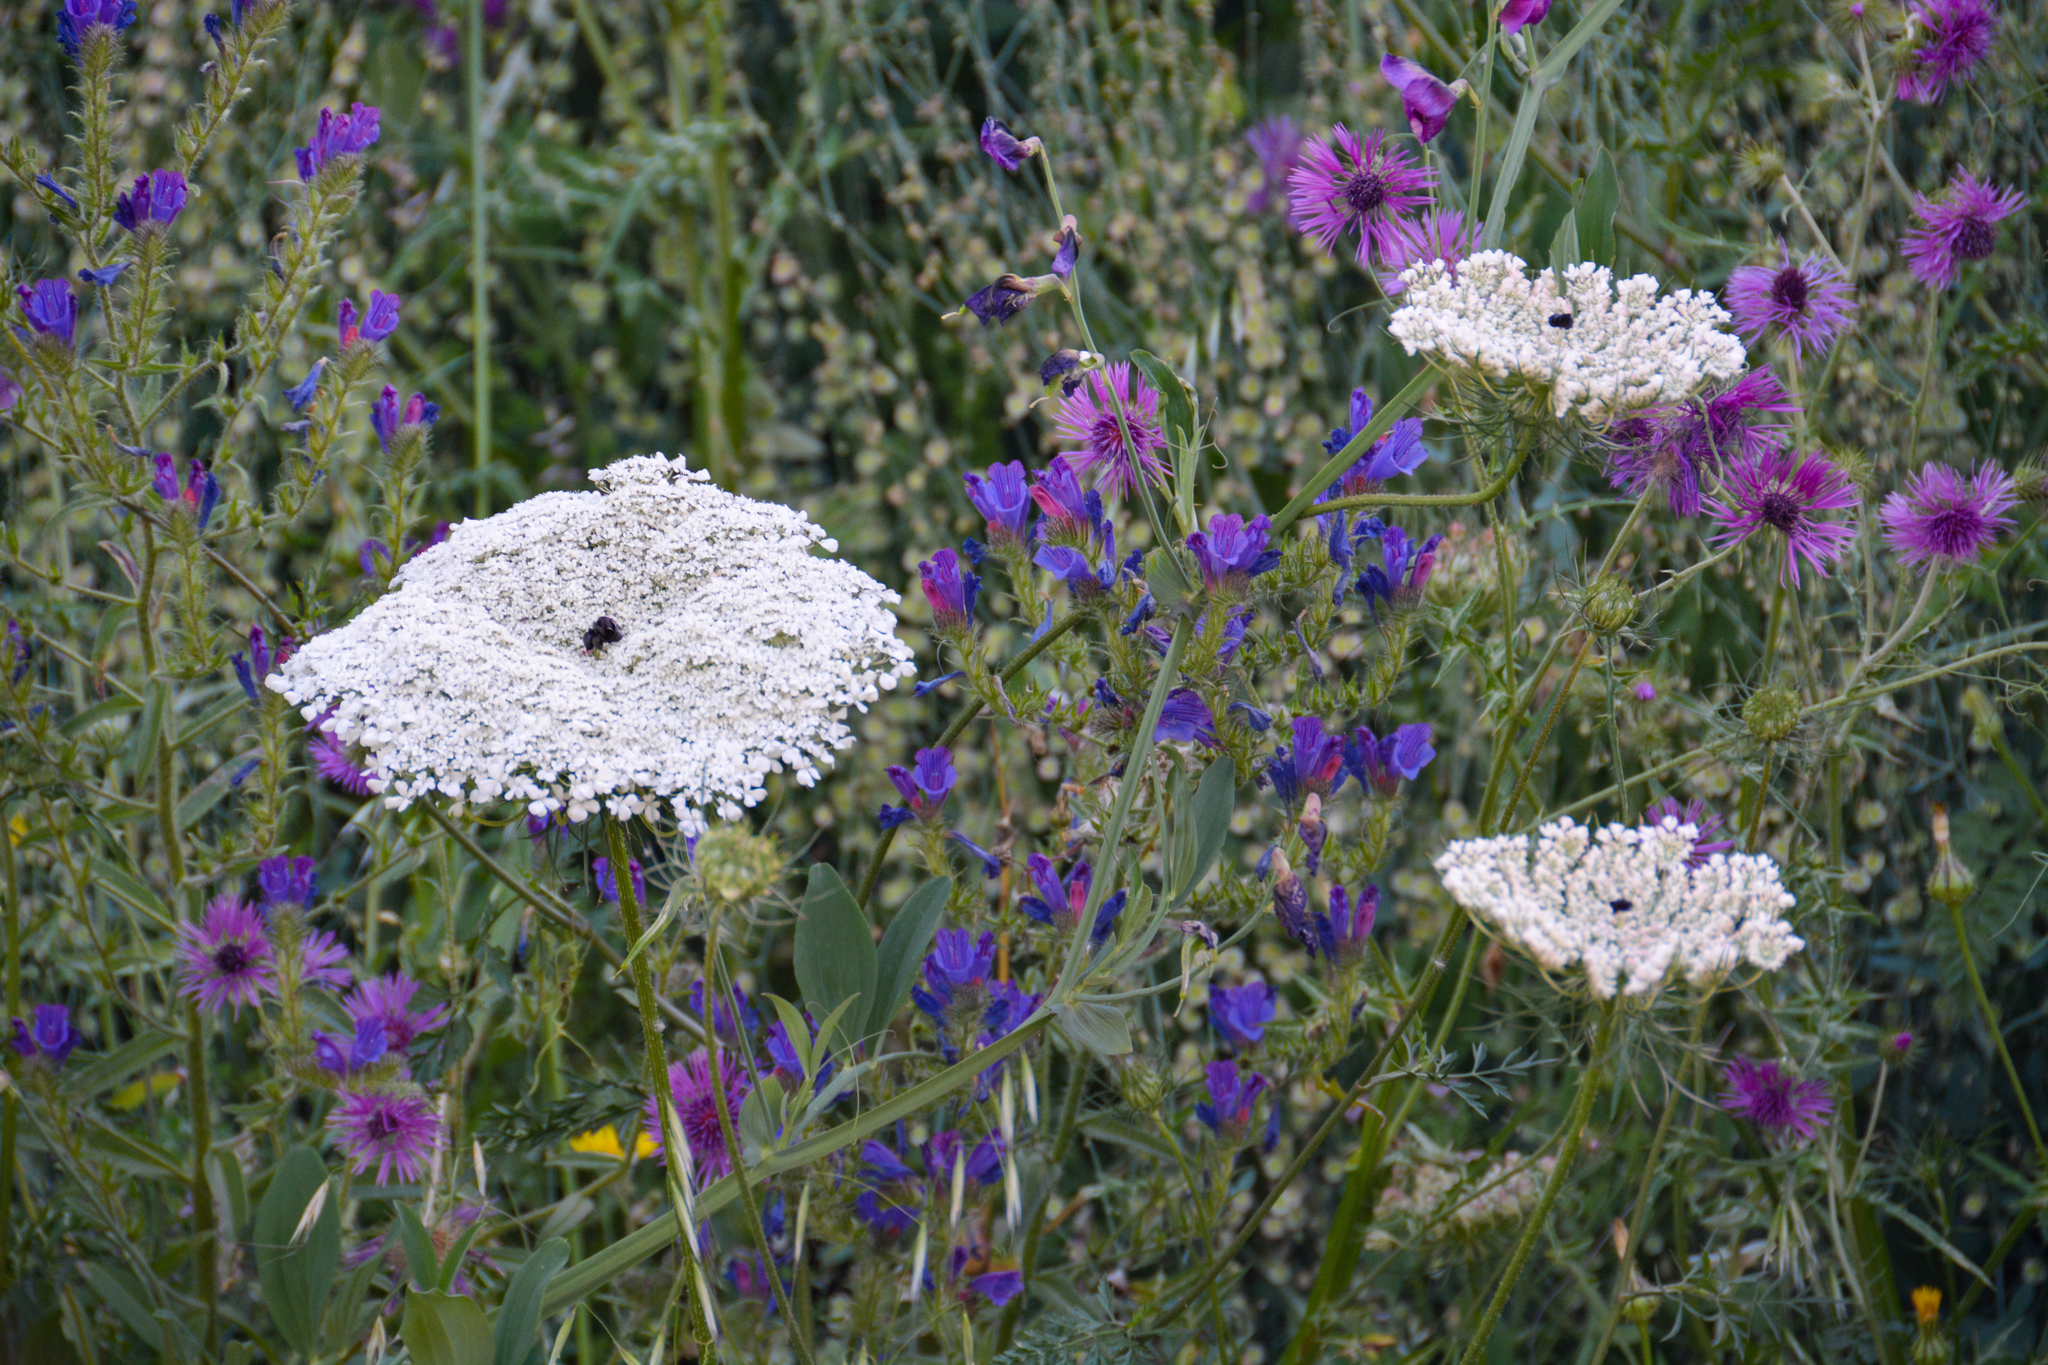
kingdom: Plantae
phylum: Tracheophyta
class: Magnoliopsida
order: Apiales
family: Apiaceae
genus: Daucus
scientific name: Daucus carota
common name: Wild carrot
